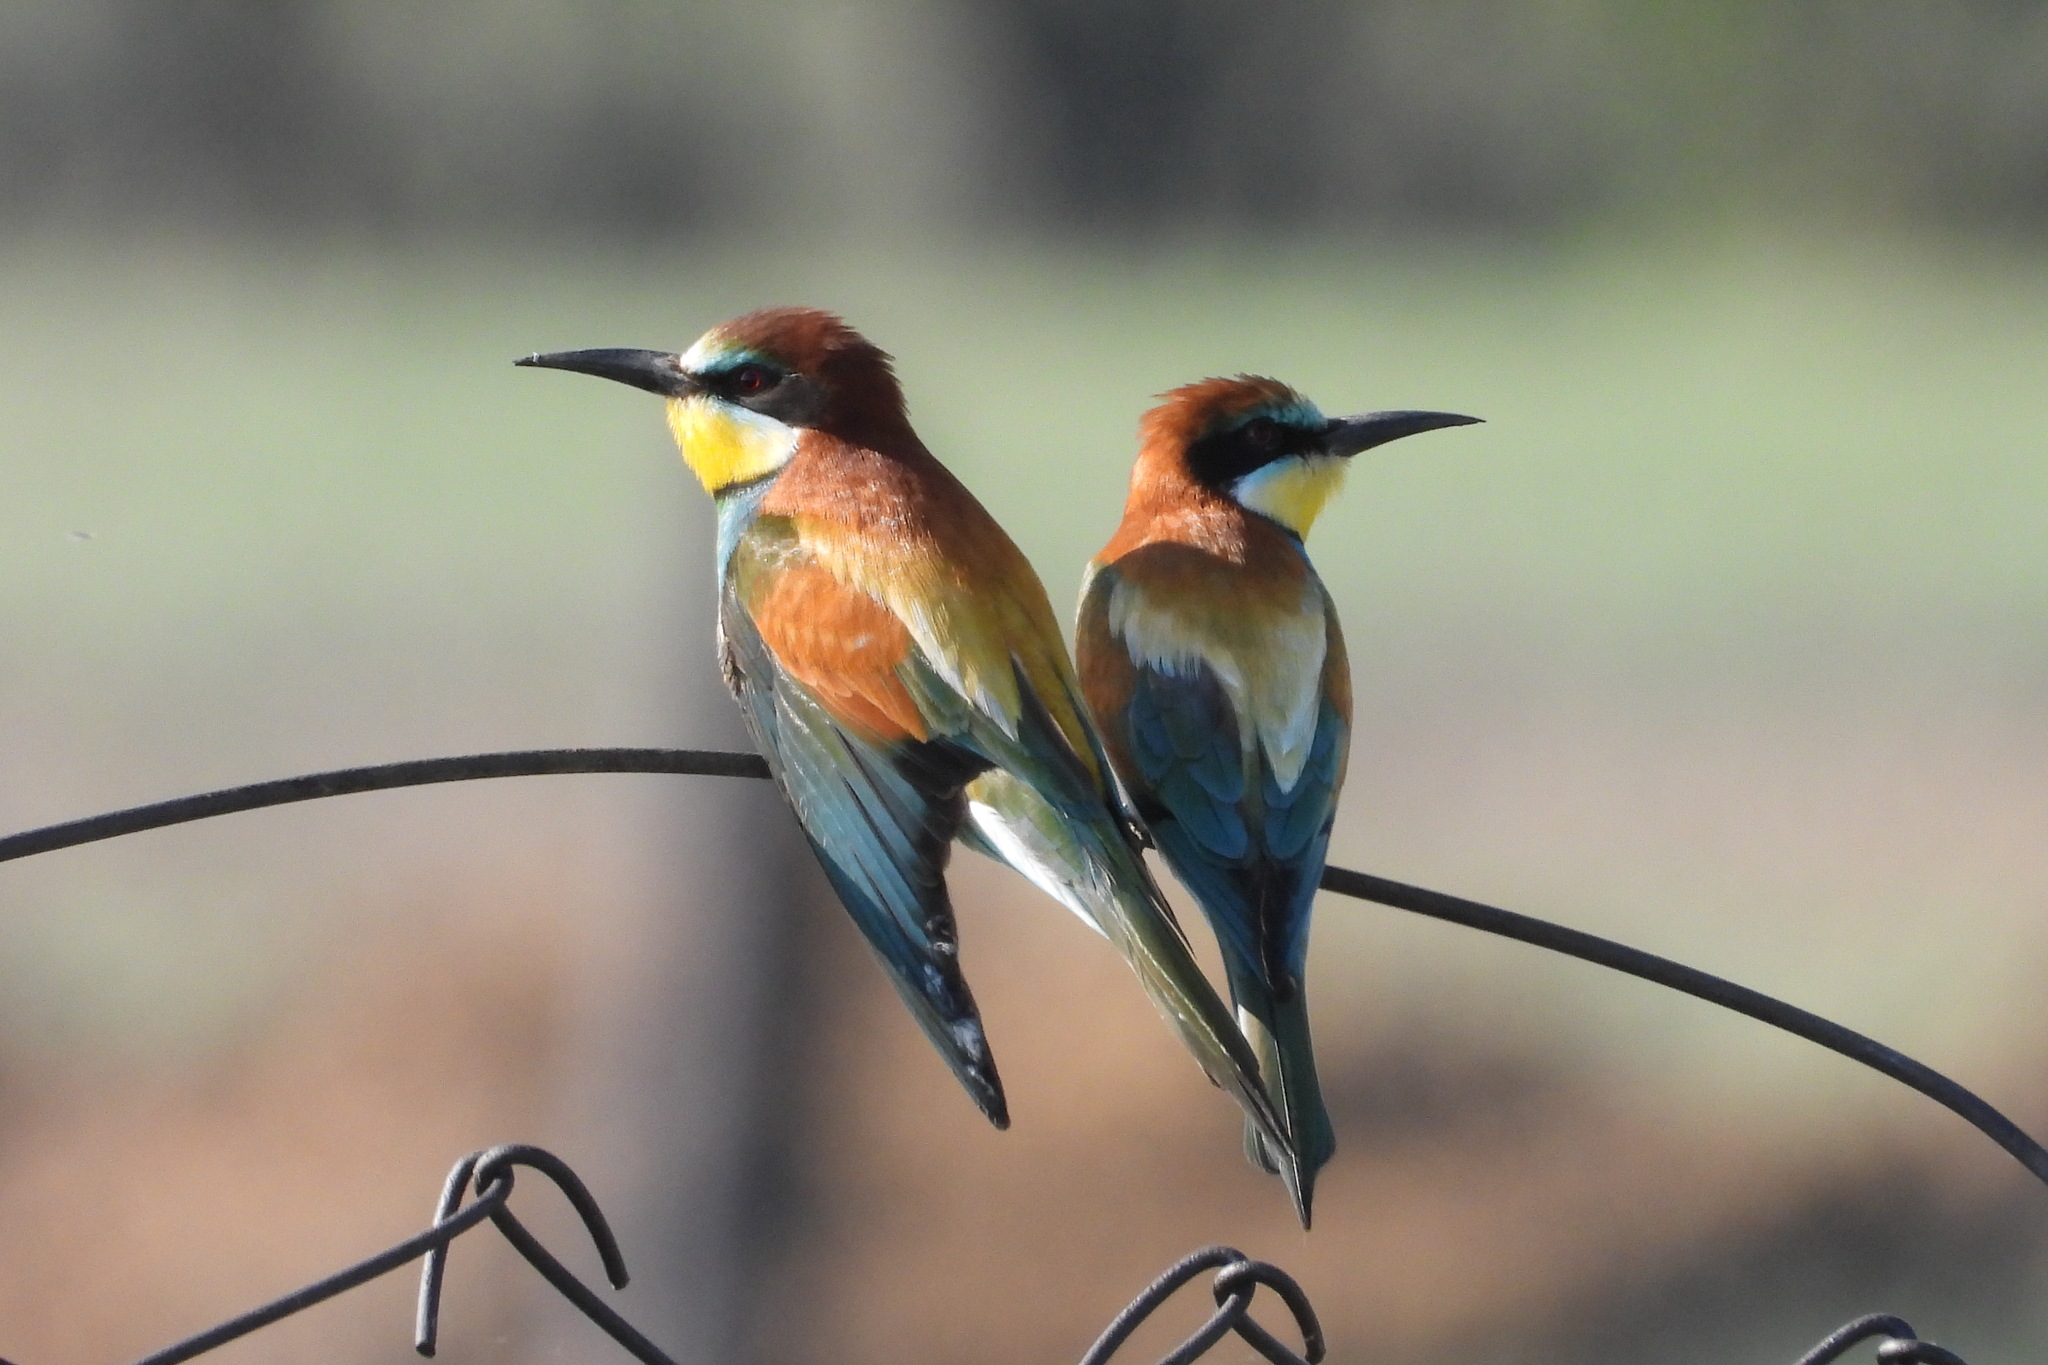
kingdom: Animalia
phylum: Chordata
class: Aves
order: Coraciiformes
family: Meropidae
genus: Merops
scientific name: Merops apiaster
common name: European bee-eater
